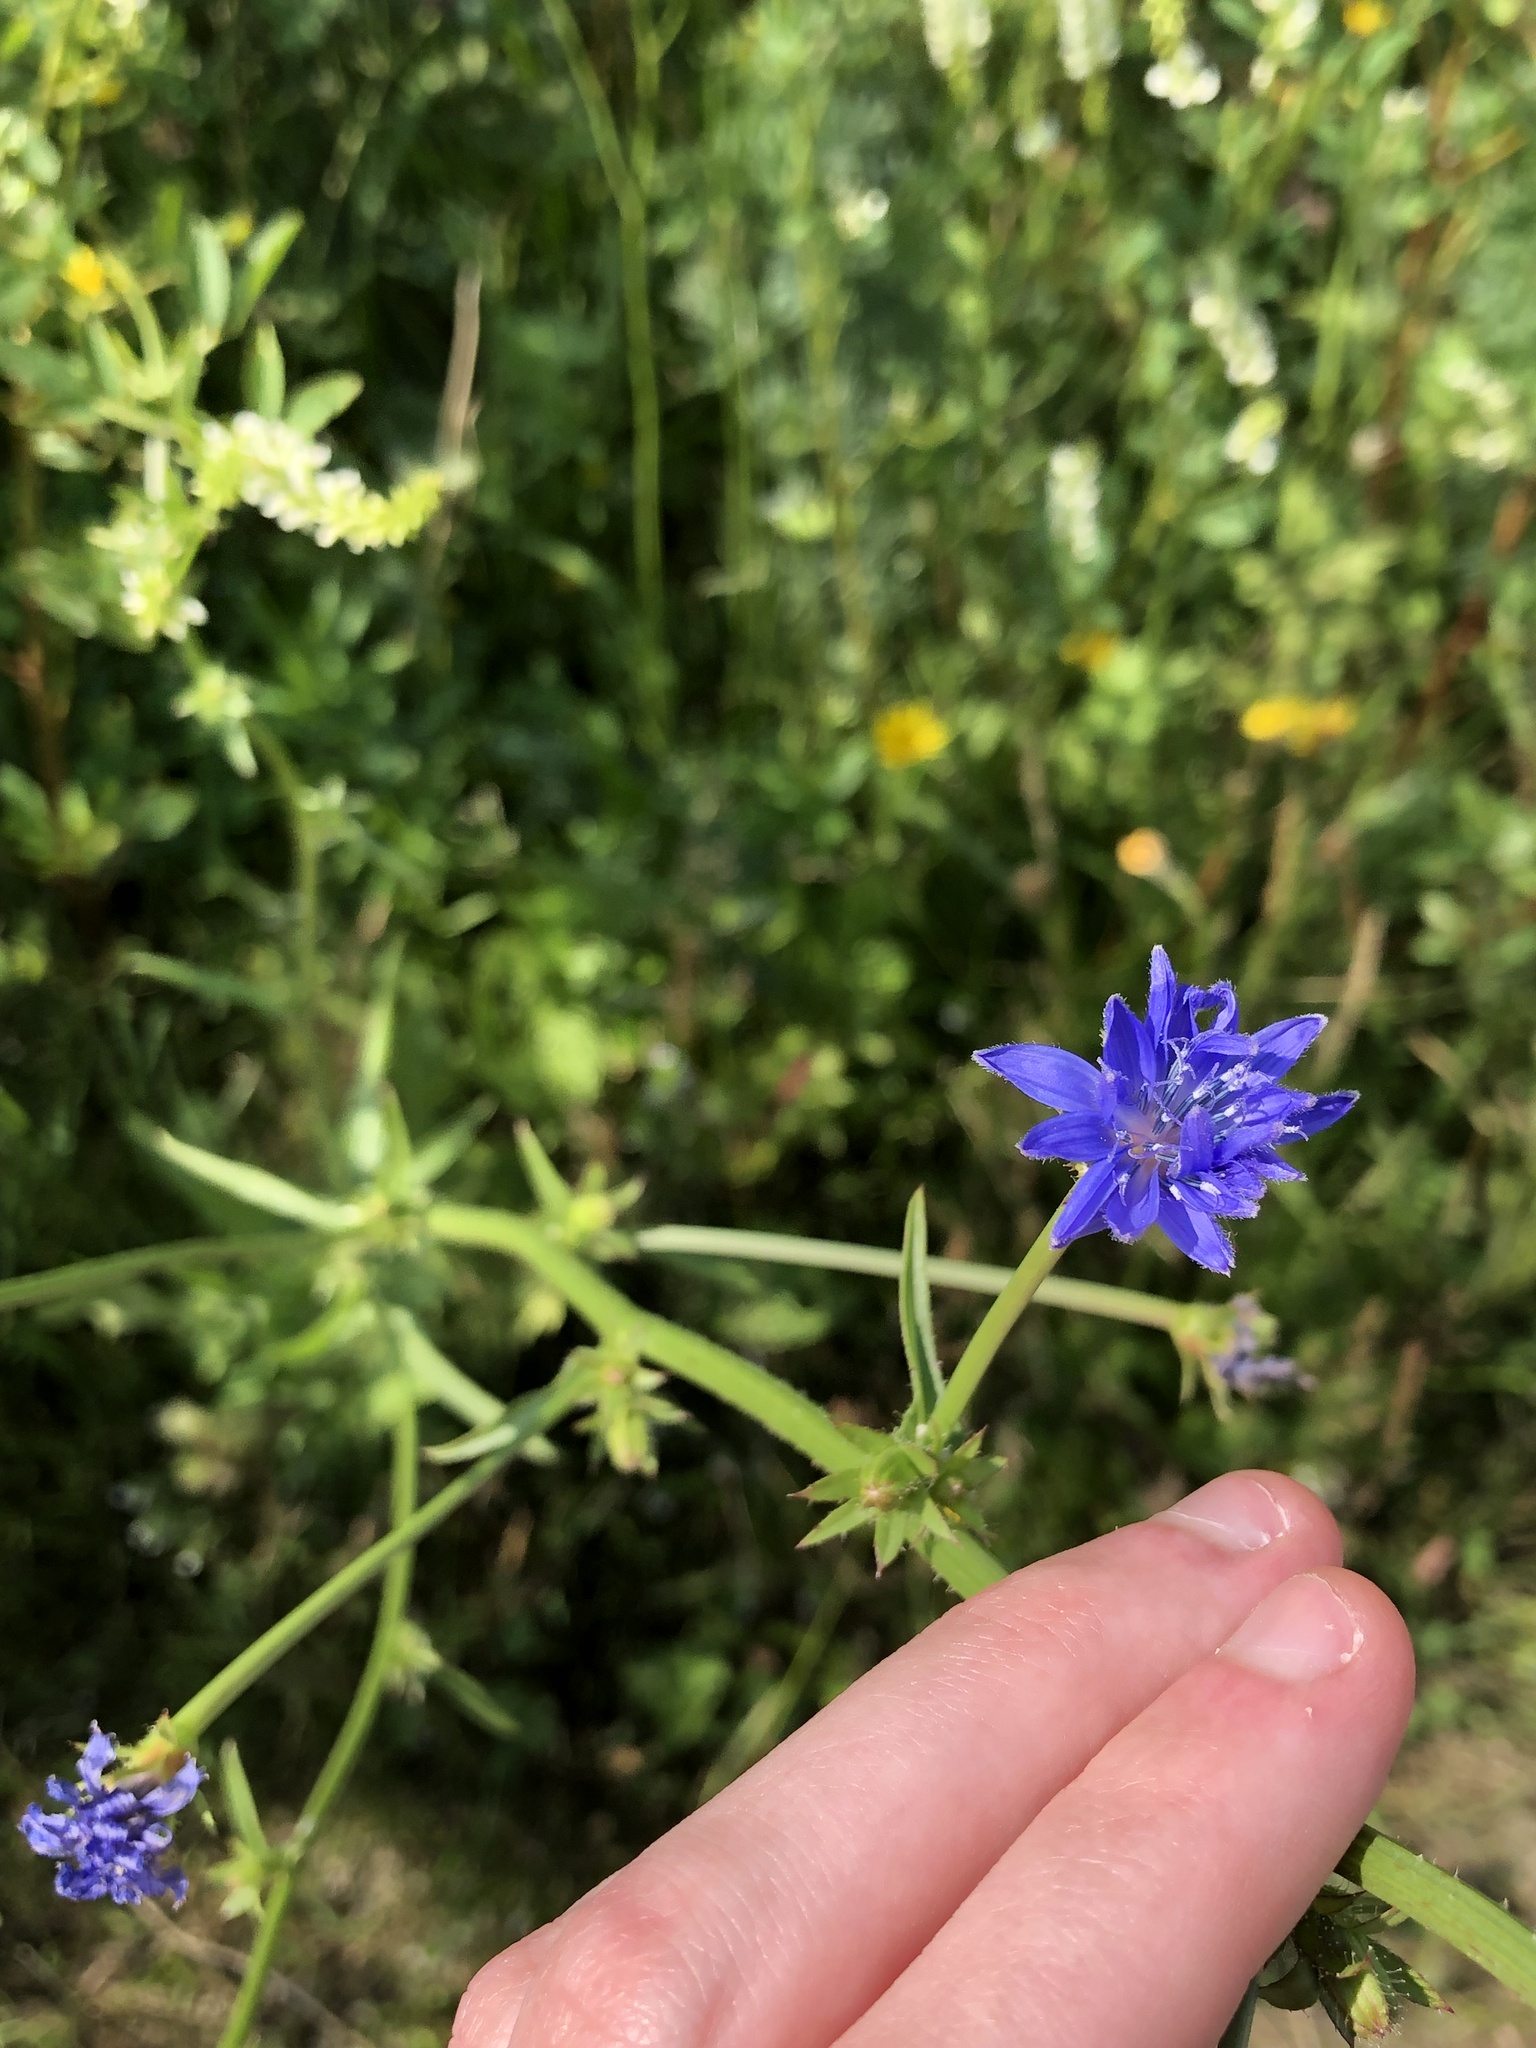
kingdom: Plantae
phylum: Tracheophyta
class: Magnoliopsida
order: Asterales
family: Asteraceae
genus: Cichorium
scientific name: Cichorium intybus
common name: Chicory
